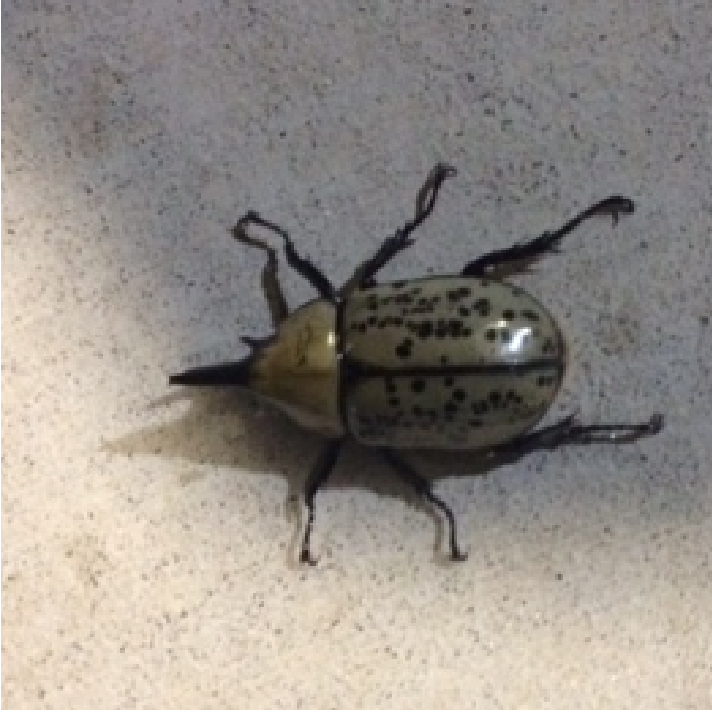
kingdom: Animalia
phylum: Arthropoda
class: Insecta
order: Coleoptera
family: Scarabaeidae
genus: Dynastes
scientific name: Dynastes tityus
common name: Eastern hercules beetle
